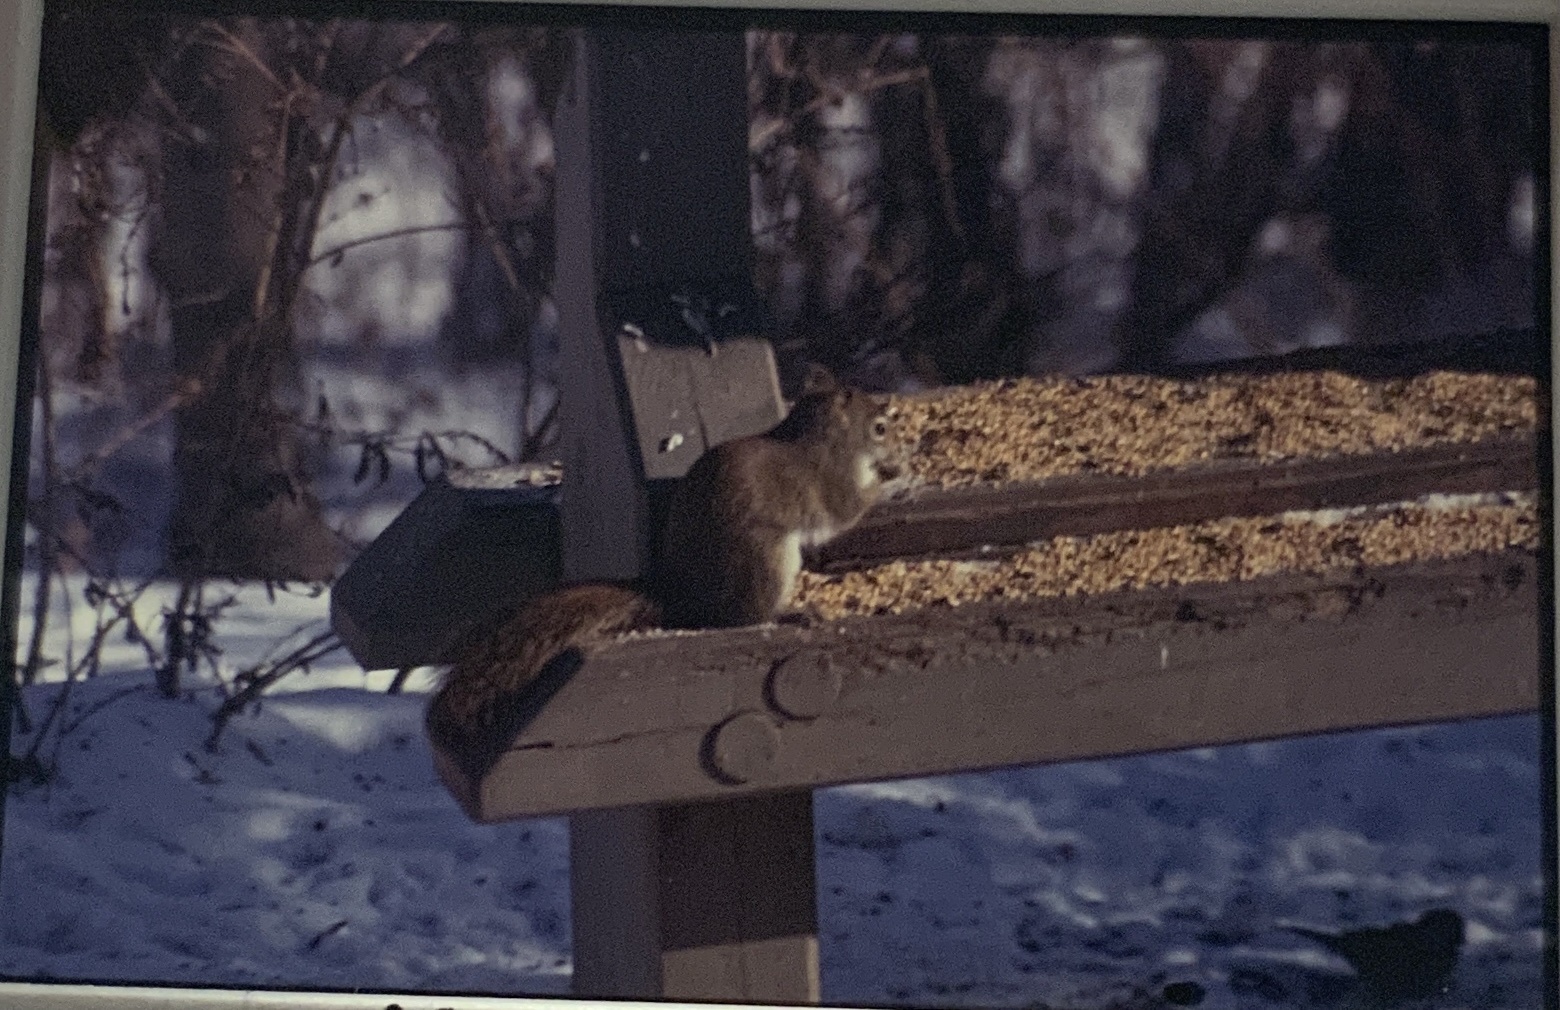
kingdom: Animalia
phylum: Chordata
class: Mammalia
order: Rodentia
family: Sciuridae
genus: Tamiasciurus
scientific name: Tamiasciurus hudsonicus
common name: Red squirrel
